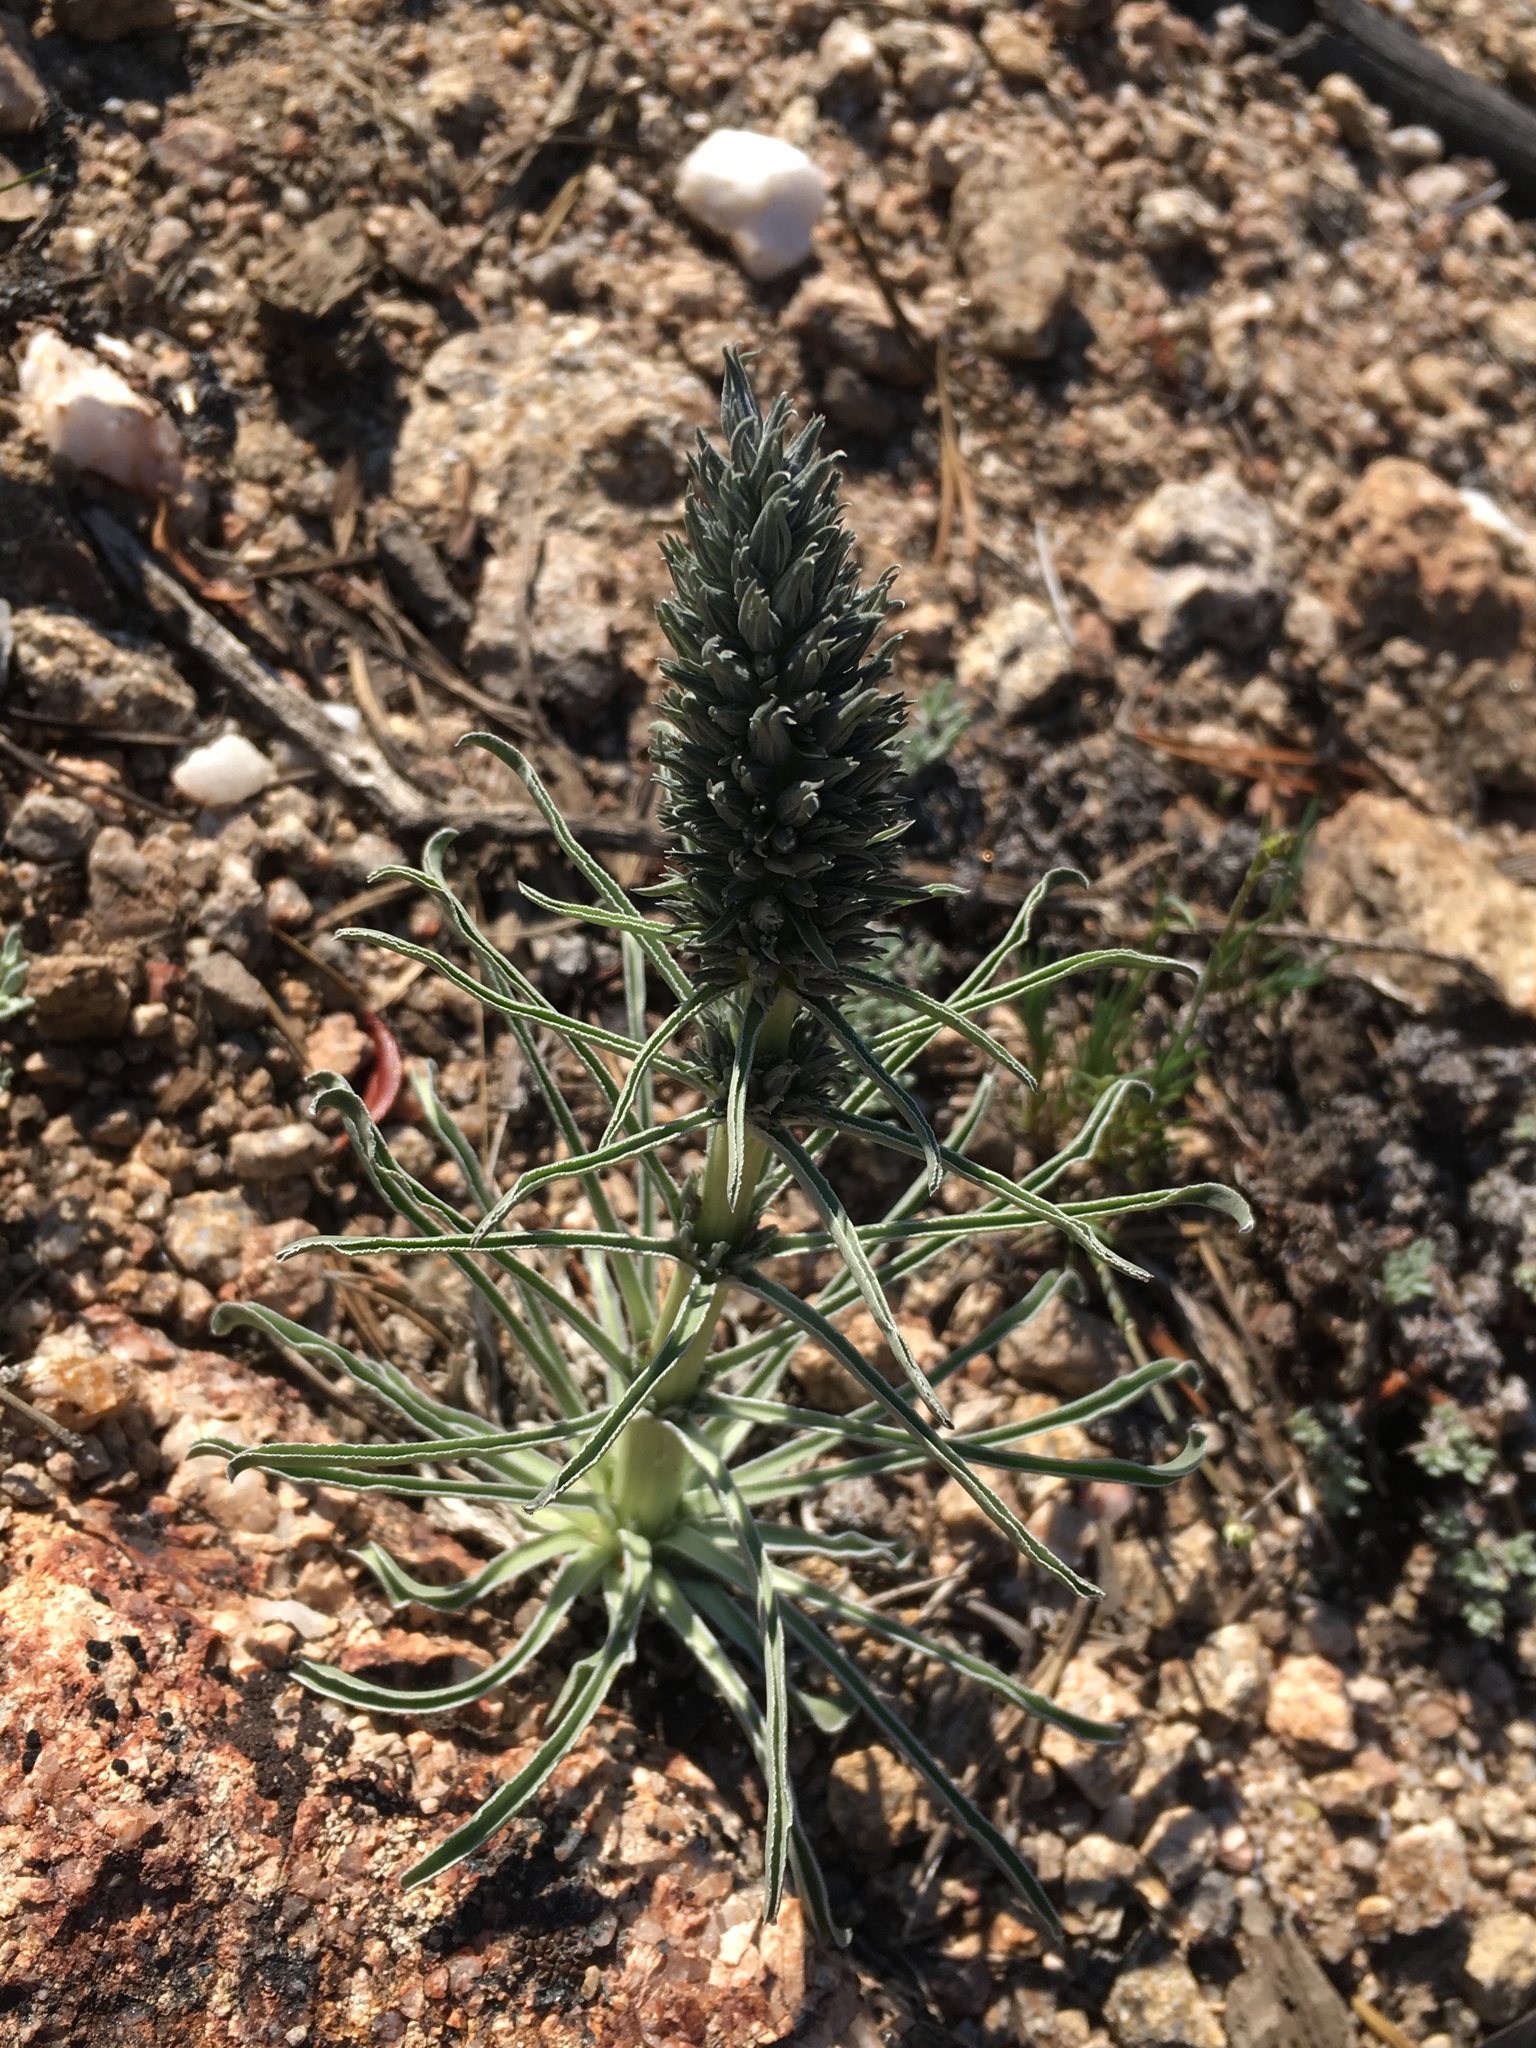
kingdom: Plantae
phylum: Tracheophyta
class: Magnoliopsida
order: Gentianales
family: Gentianaceae
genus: Frasera
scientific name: Frasera tubulosa
